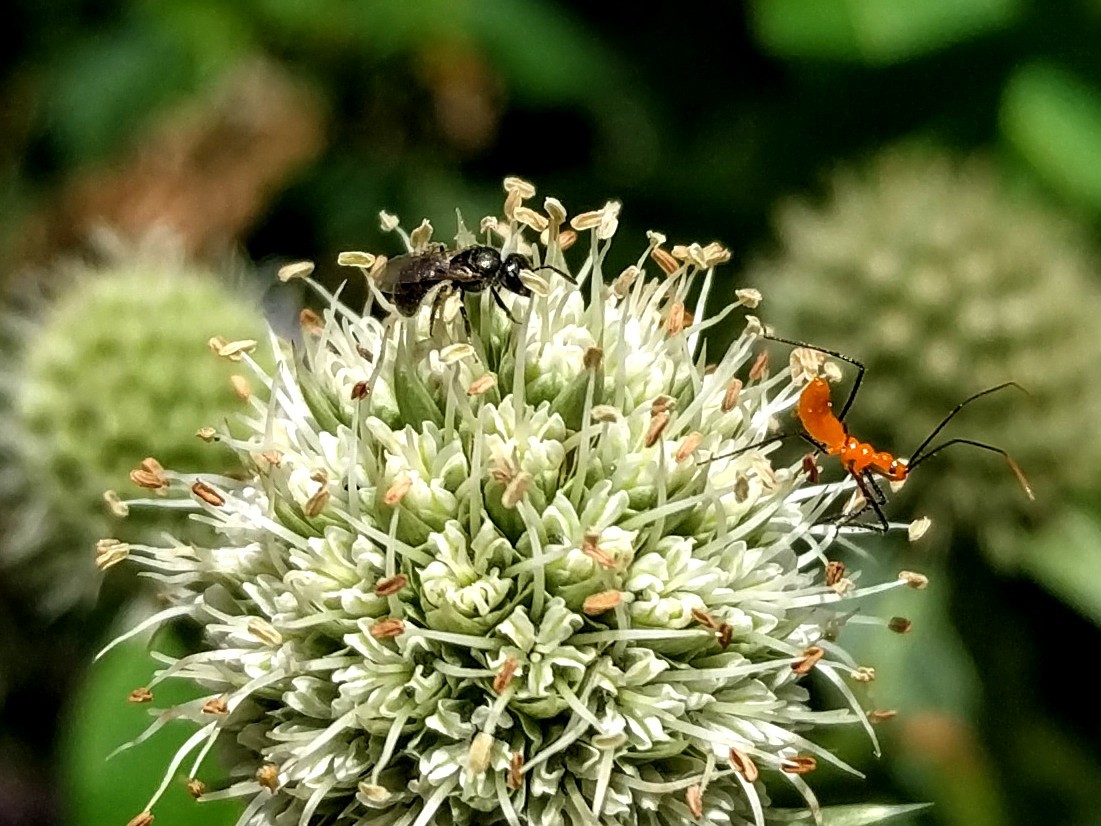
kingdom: Animalia
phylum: Arthropoda
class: Insecta
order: Hemiptera
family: Reduviidae
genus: Zelus
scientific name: Zelus longipes
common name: Milkweed assassin bug
